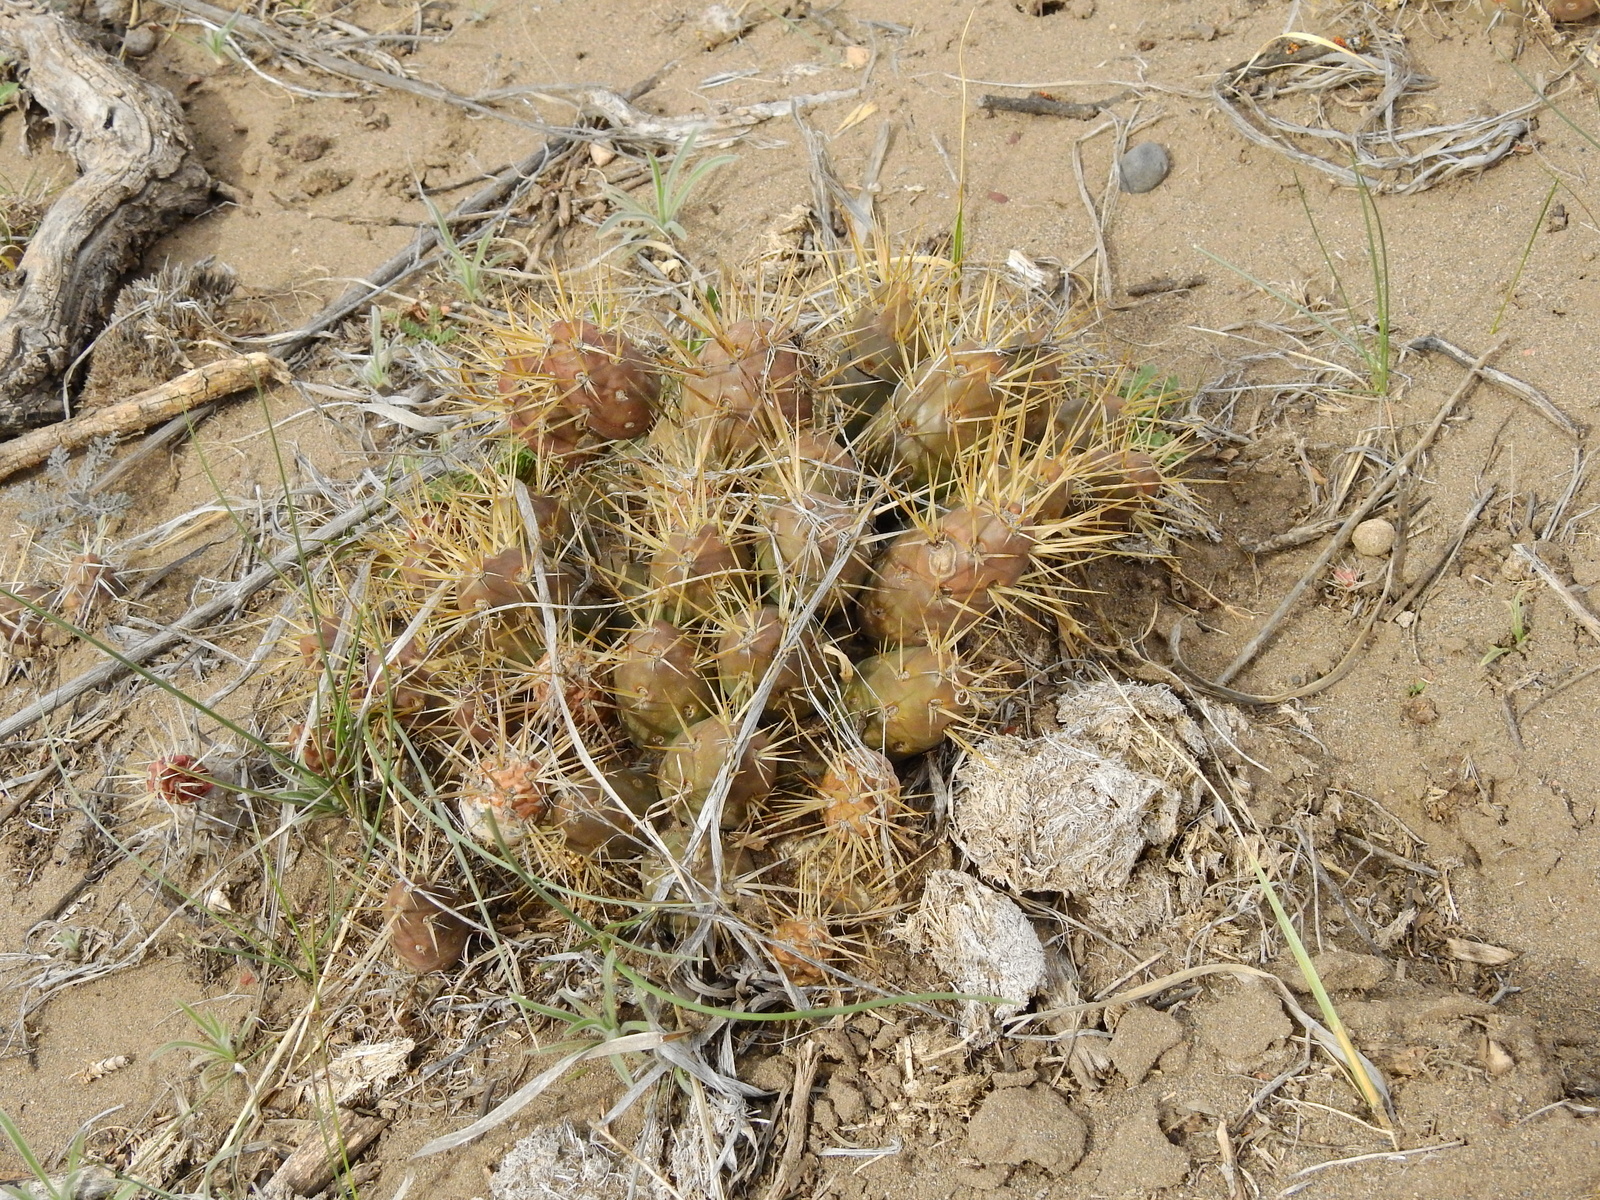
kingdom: Plantae
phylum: Tracheophyta
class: Magnoliopsida
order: Caryophyllales
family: Cactaceae
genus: Maihueniopsis
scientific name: Maihueniopsis ovata
